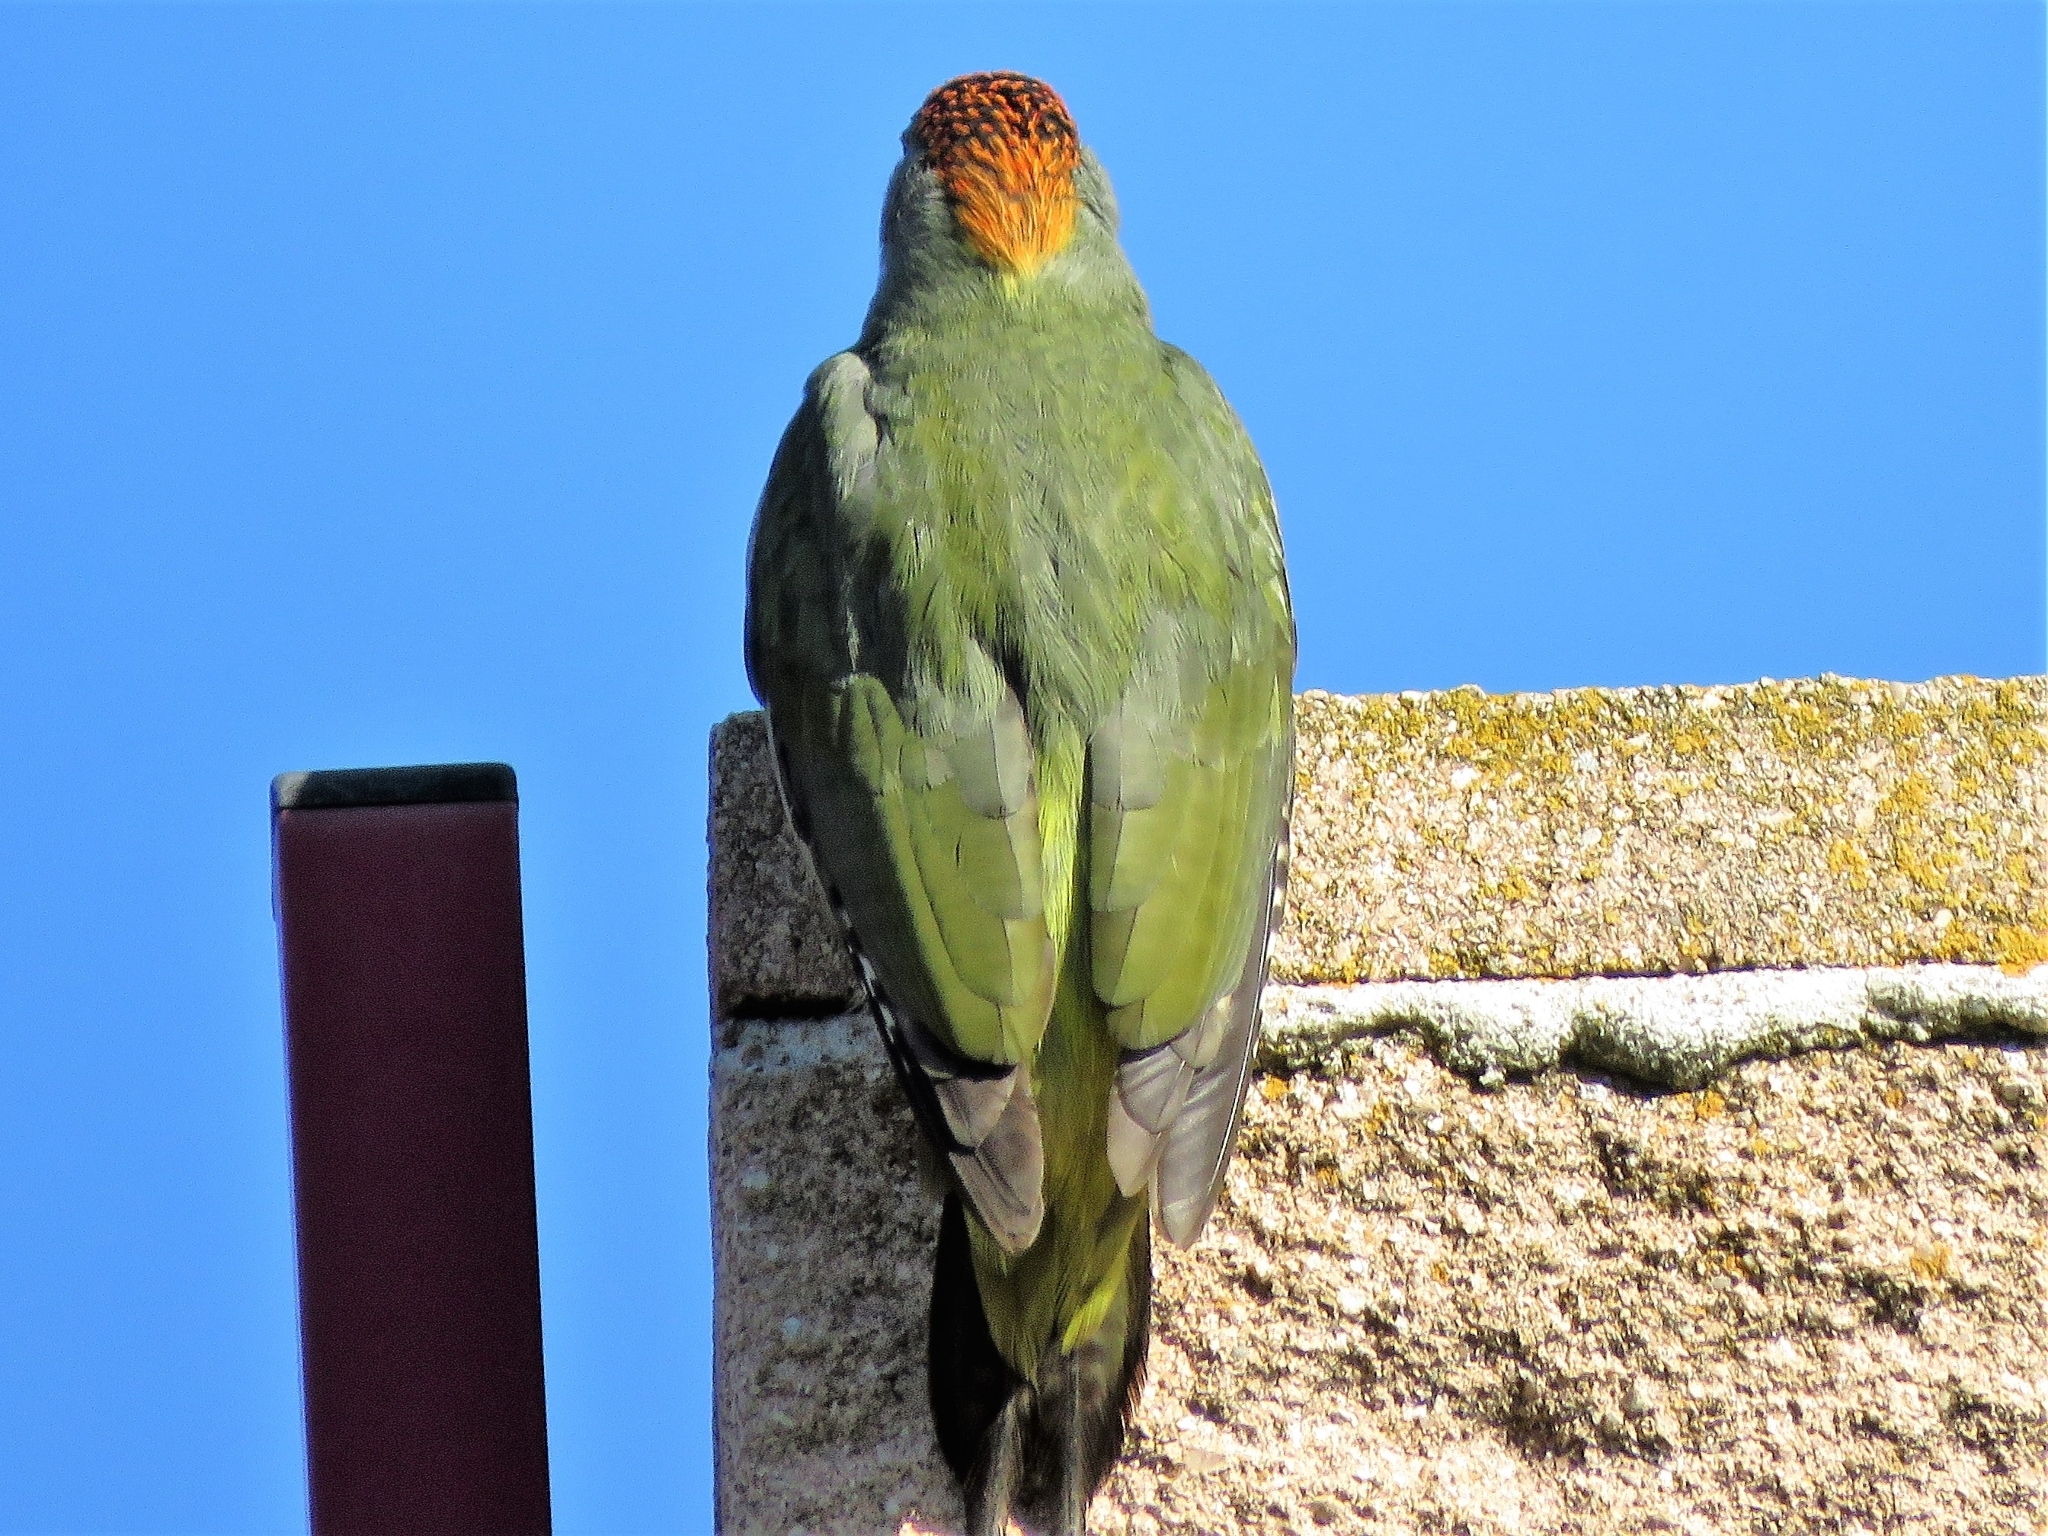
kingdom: Animalia
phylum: Chordata
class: Aves
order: Piciformes
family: Picidae
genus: Picus
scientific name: Picus sharpei
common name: Iberian green woodpecker
